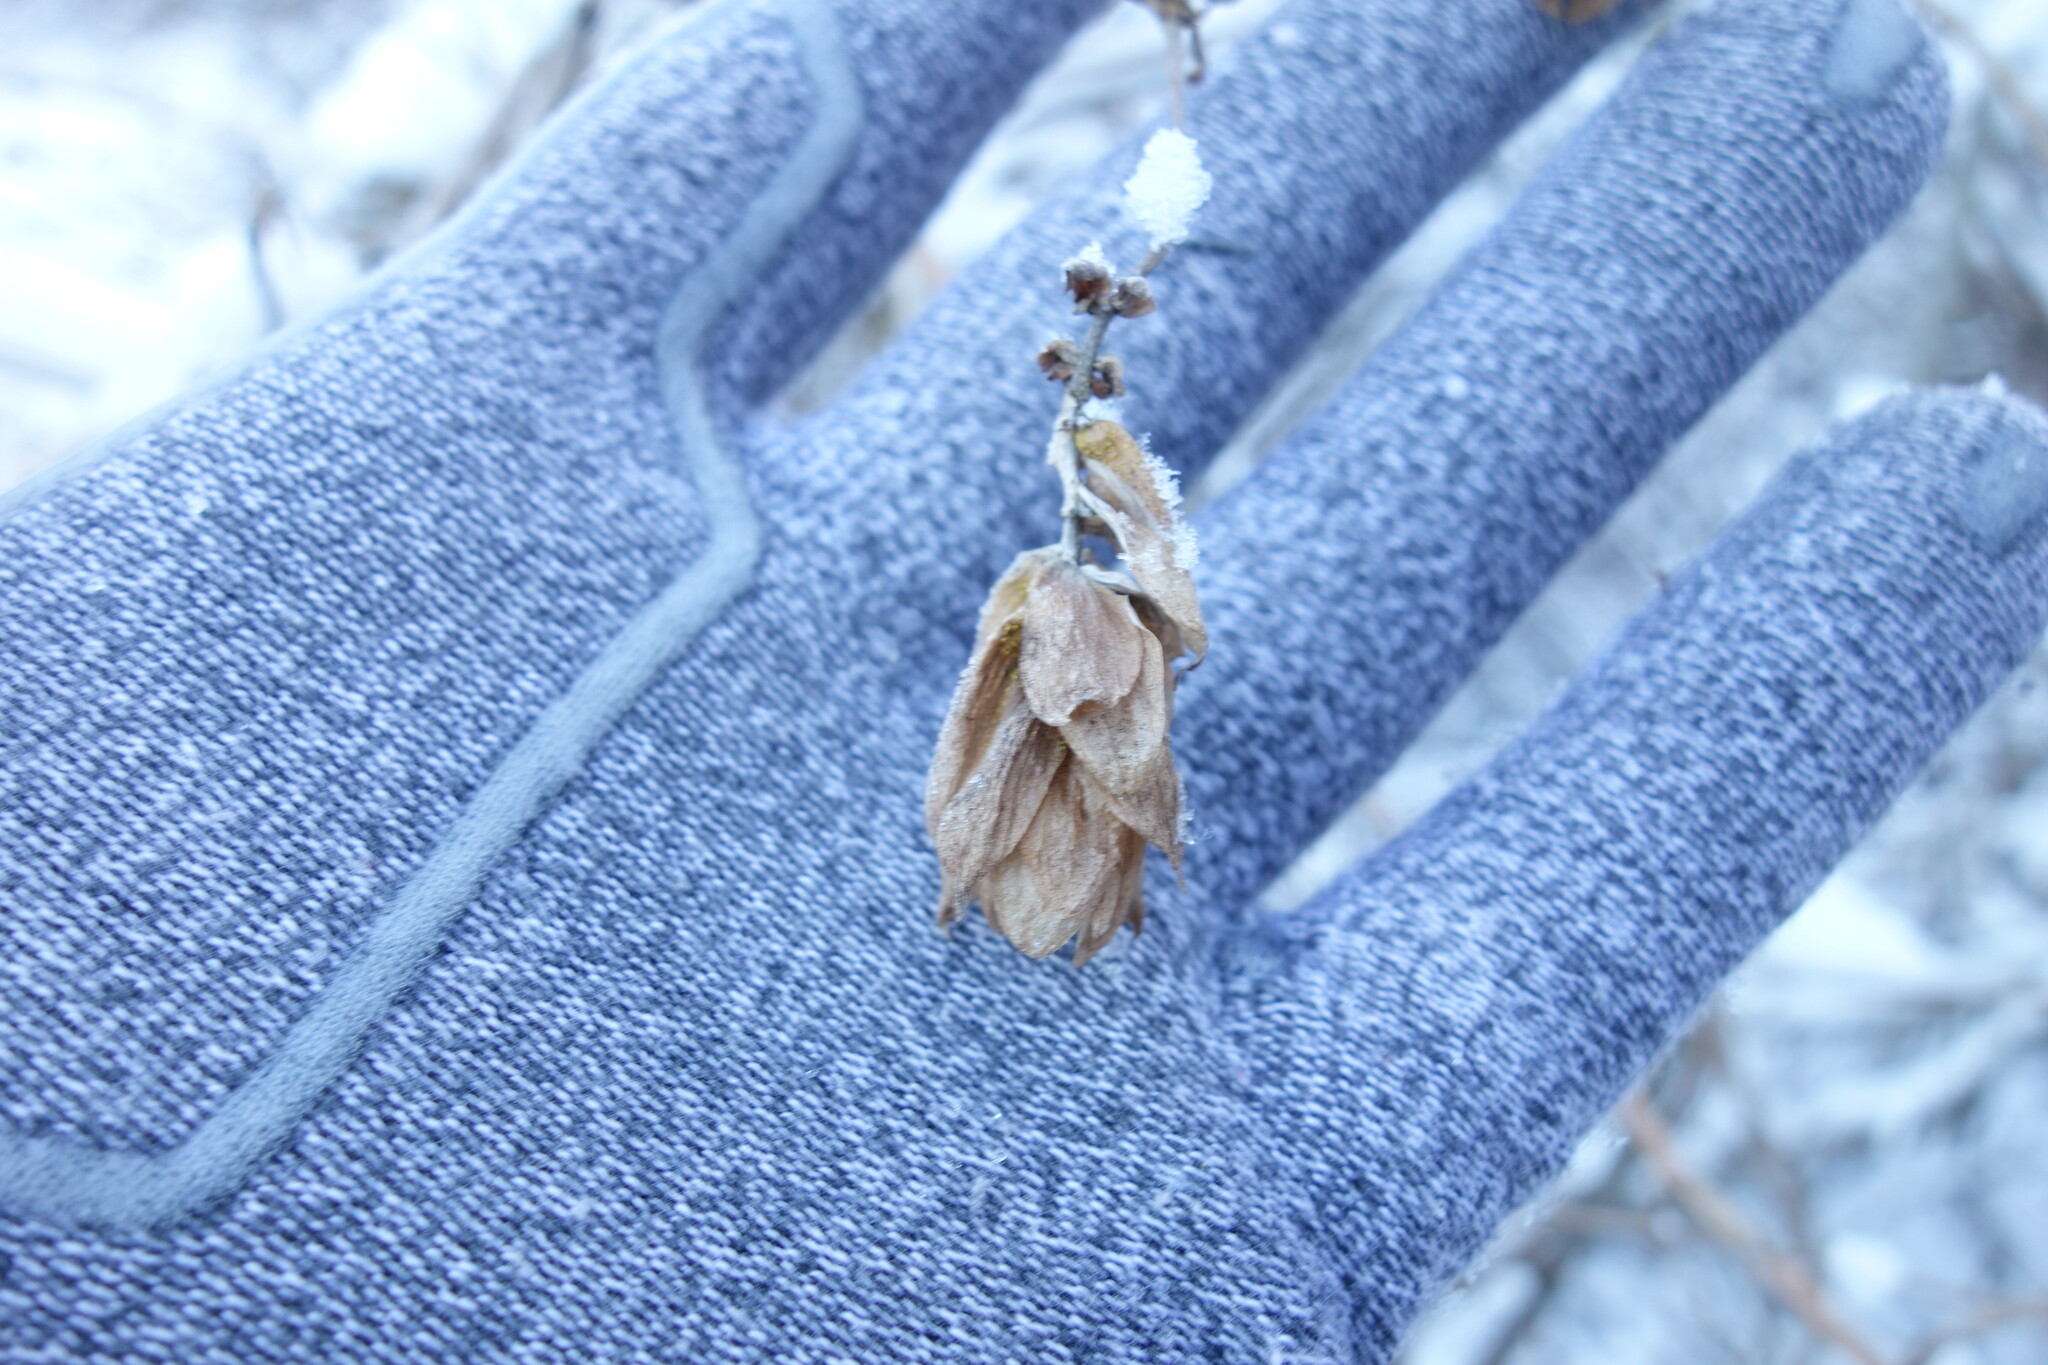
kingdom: Plantae
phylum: Tracheophyta
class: Magnoliopsida
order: Rosales
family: Cannabaceae
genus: Humulus
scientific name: Humulus lupulus
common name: Hop
